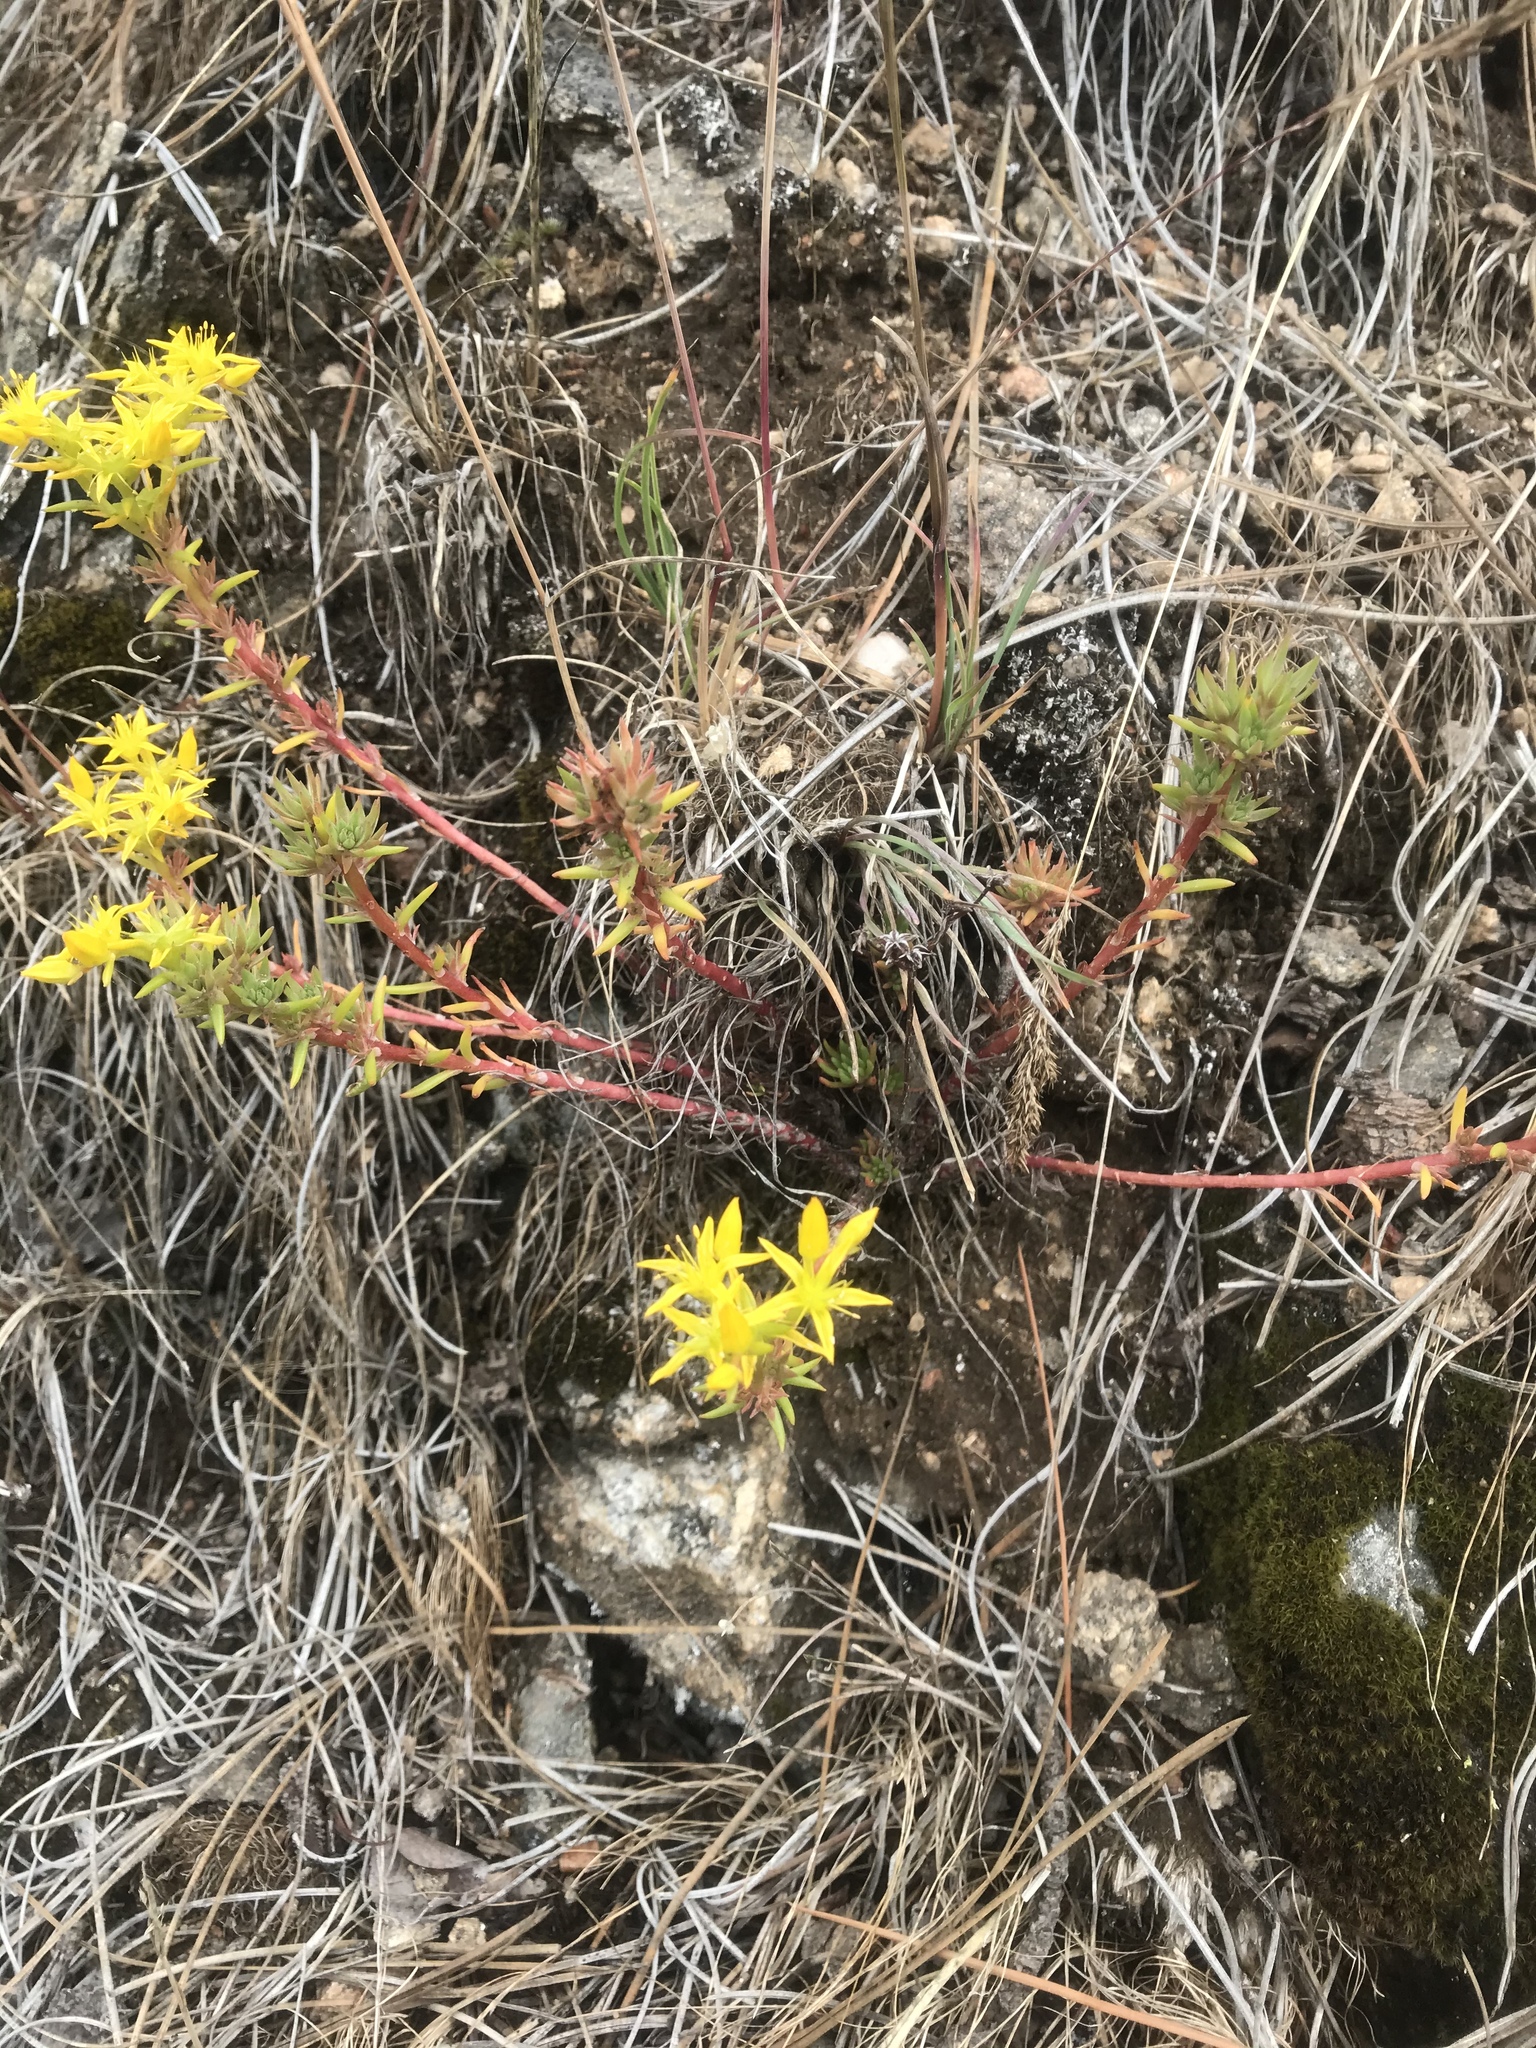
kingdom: Plantae
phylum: Tracheophyta
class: Magnoliopsida
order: Saxifragales
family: Crassulaceae
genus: Sedum
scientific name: Sedum stenopetalum
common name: Narrow-petaled stonecrop
